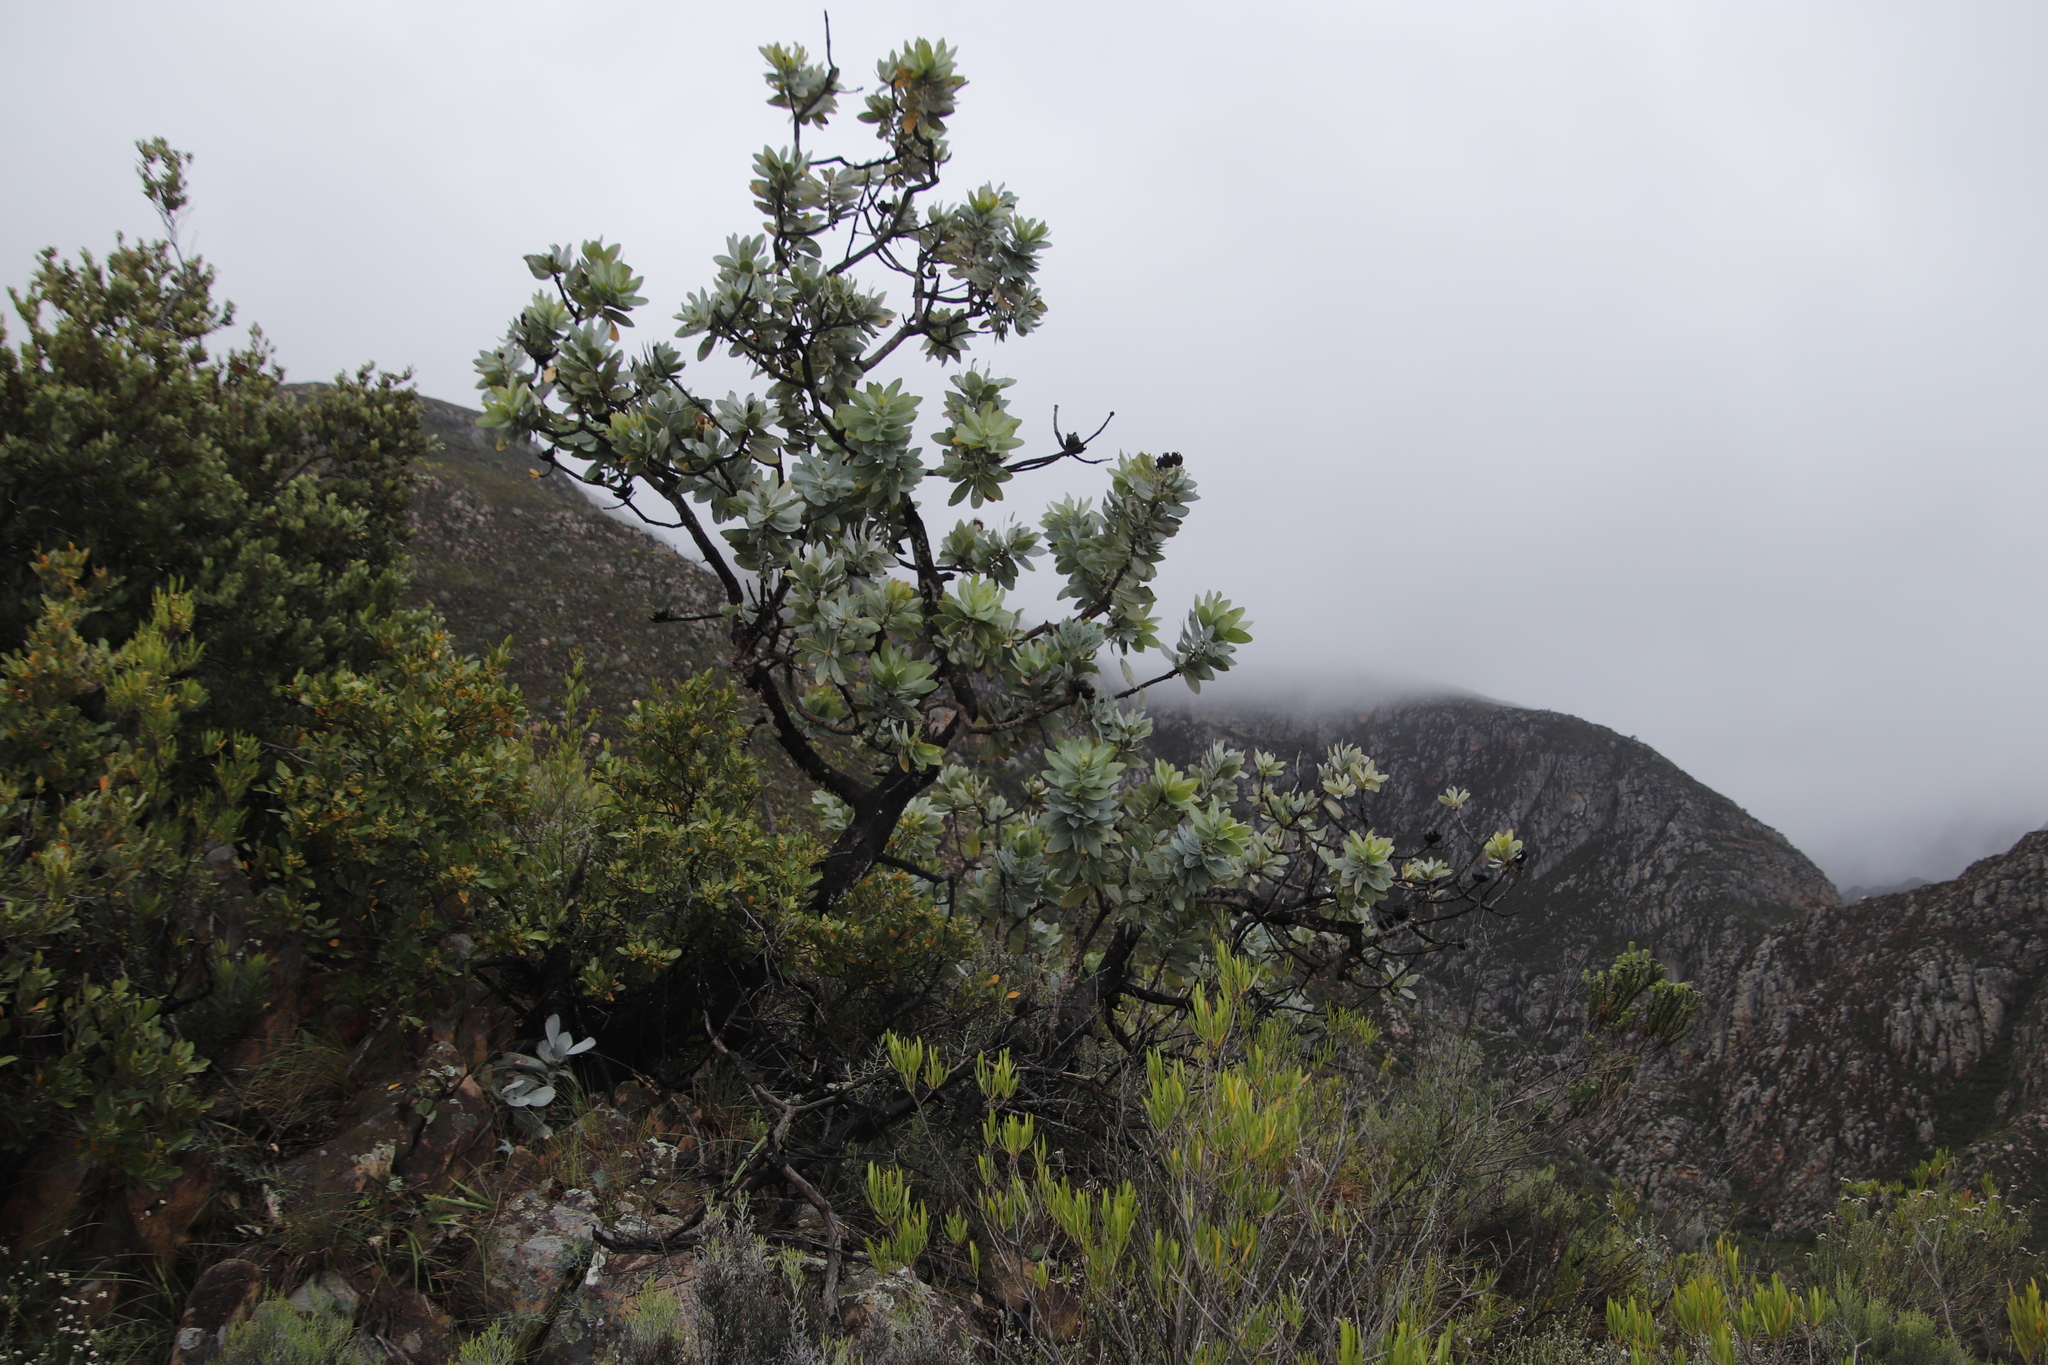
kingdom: Plantae
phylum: Tracheophyta
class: Magnoliopsida
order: Proteales
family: Proteaceae
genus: Protea
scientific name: Protea nitida
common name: Tree protea
